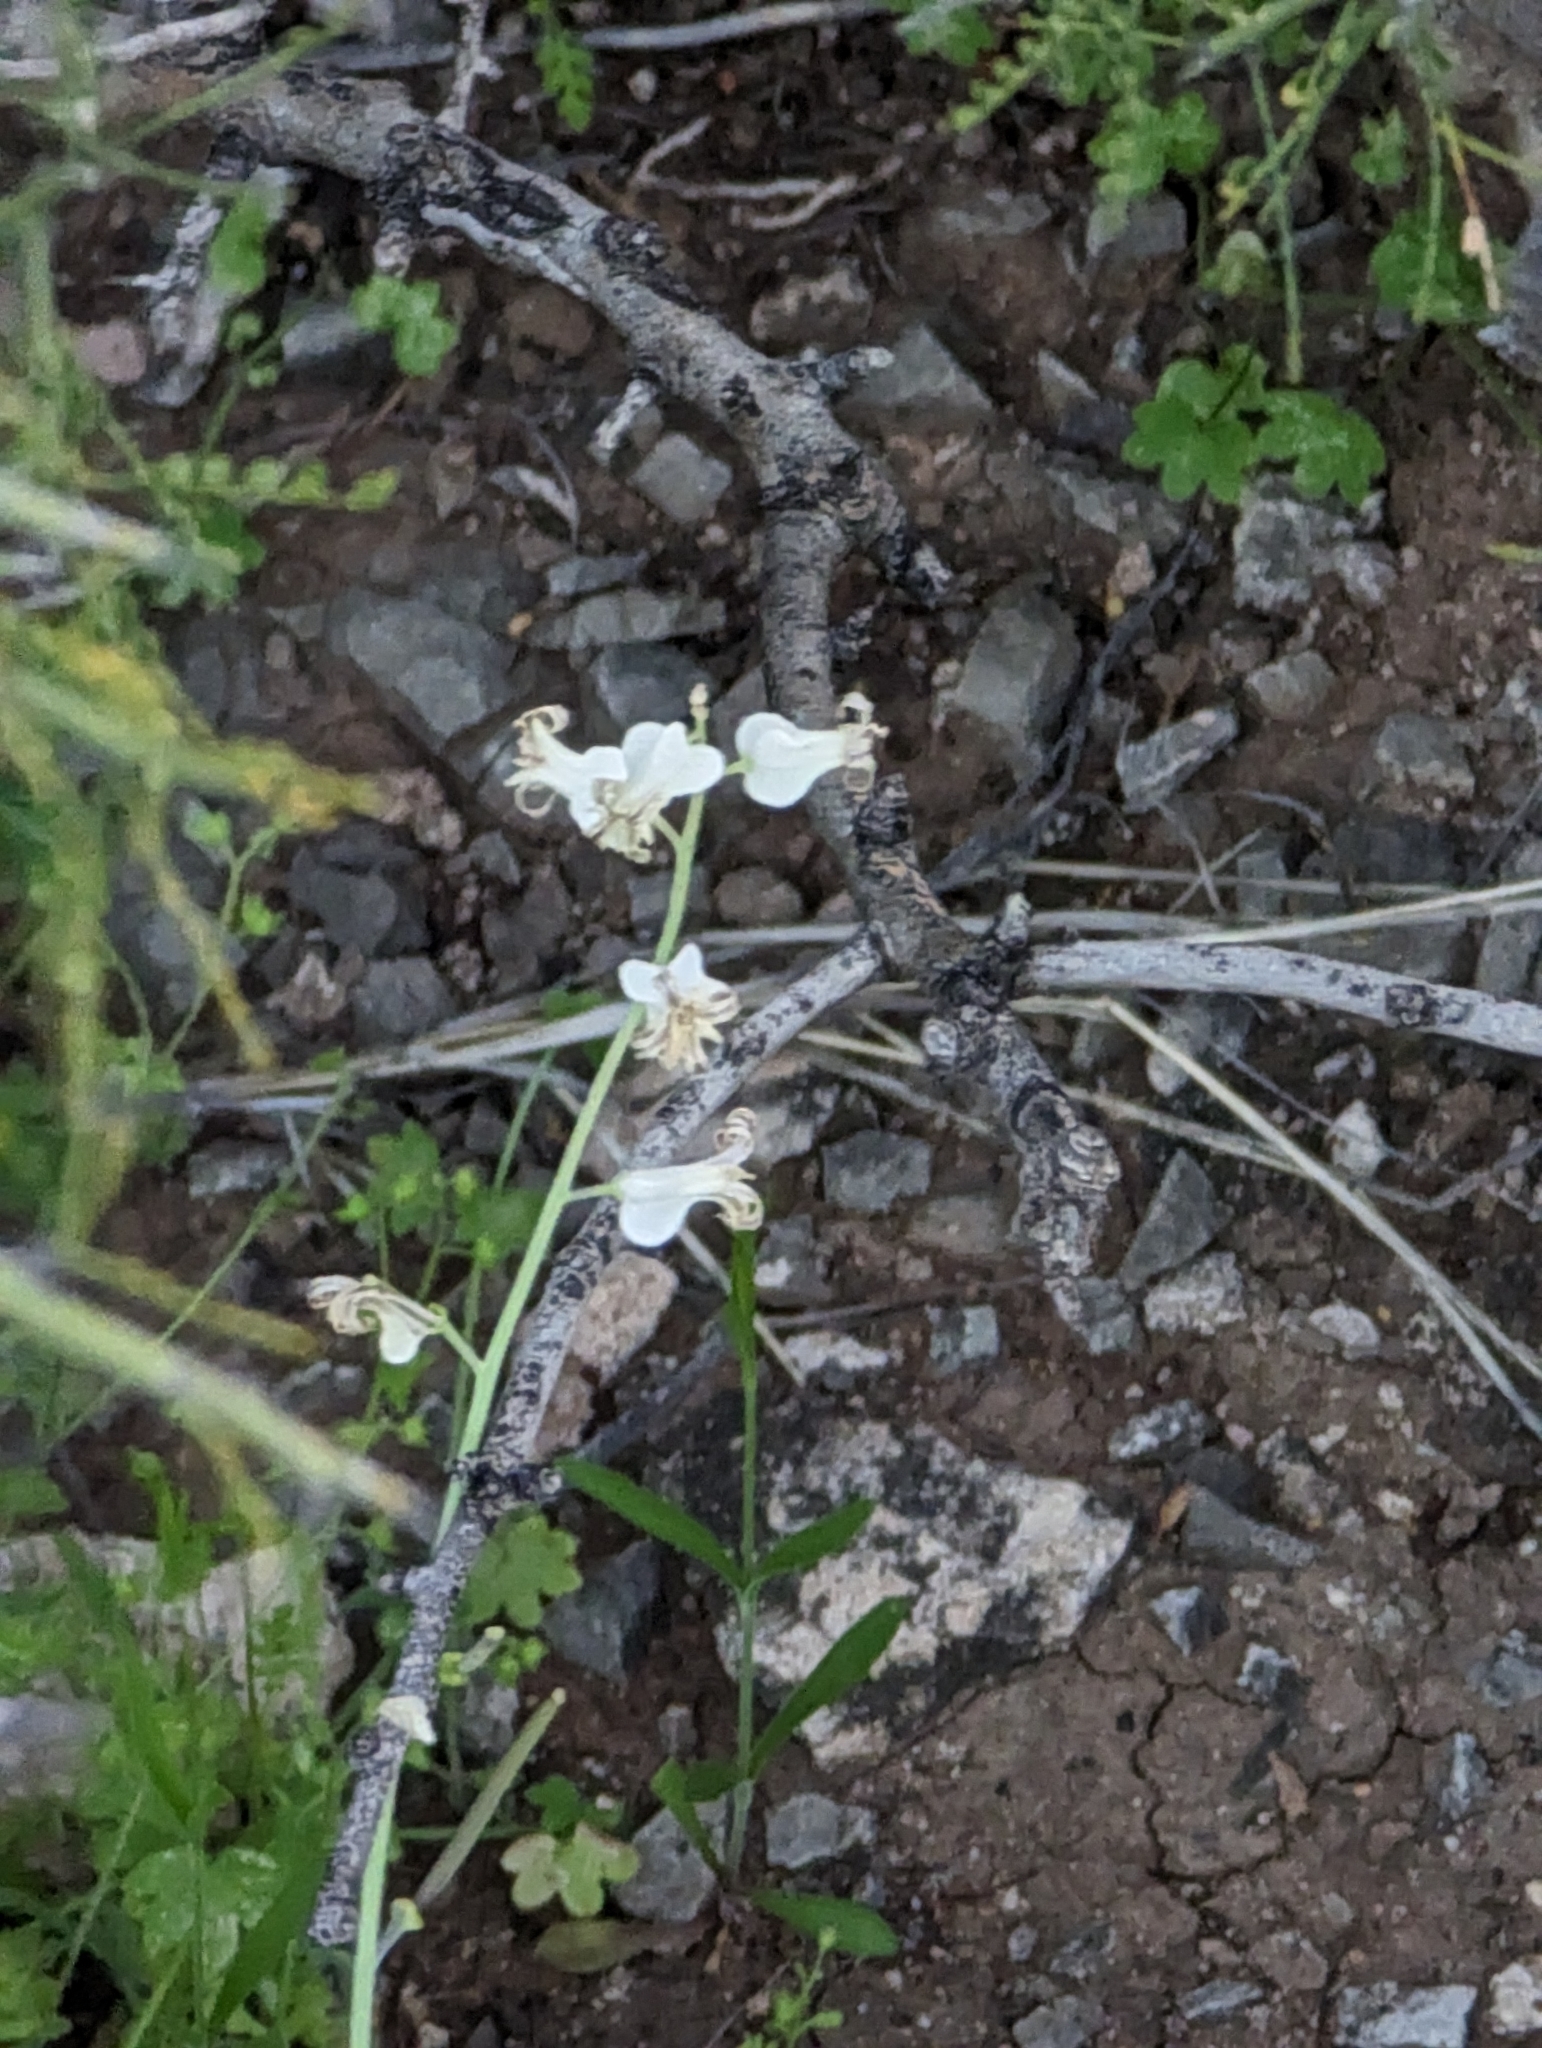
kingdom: Plantae
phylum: Tracheophyta
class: Magnoliopsida
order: Brassicales
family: Brassicaceae
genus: Streptanthus
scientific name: Streptanthus carinatus
